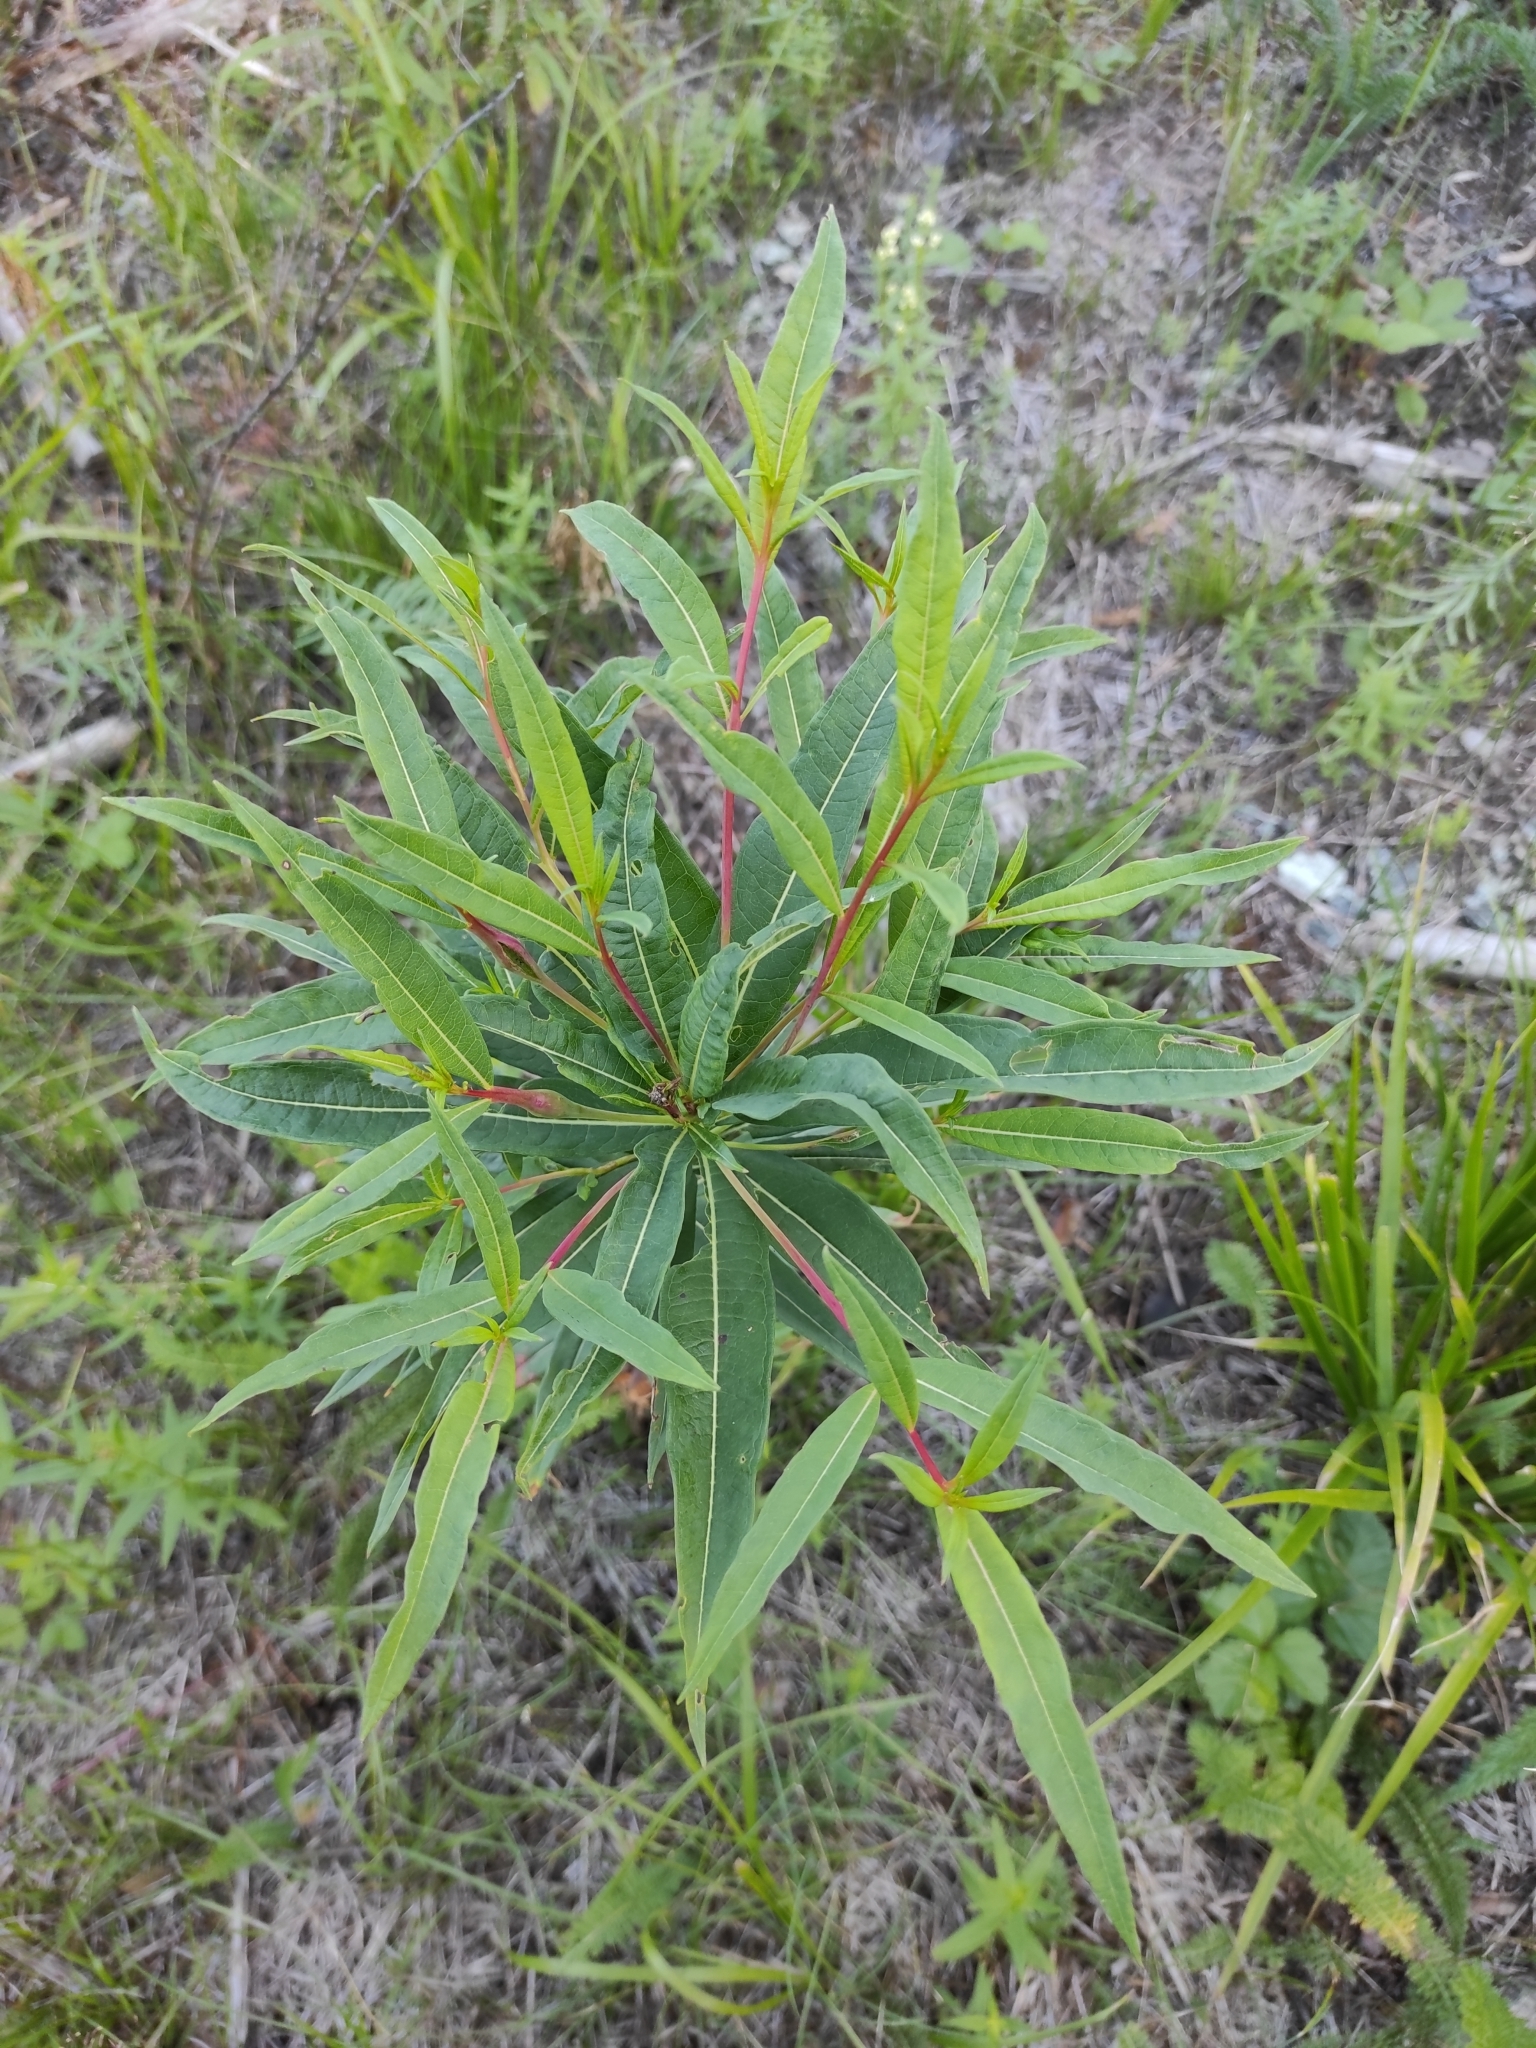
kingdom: Plantae
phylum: Tracheophyta
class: Magnoliopsida
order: Myrtales
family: Onagraceae
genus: Chamaenerion
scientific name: Chamaenerion angustifolium
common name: Fireweed
